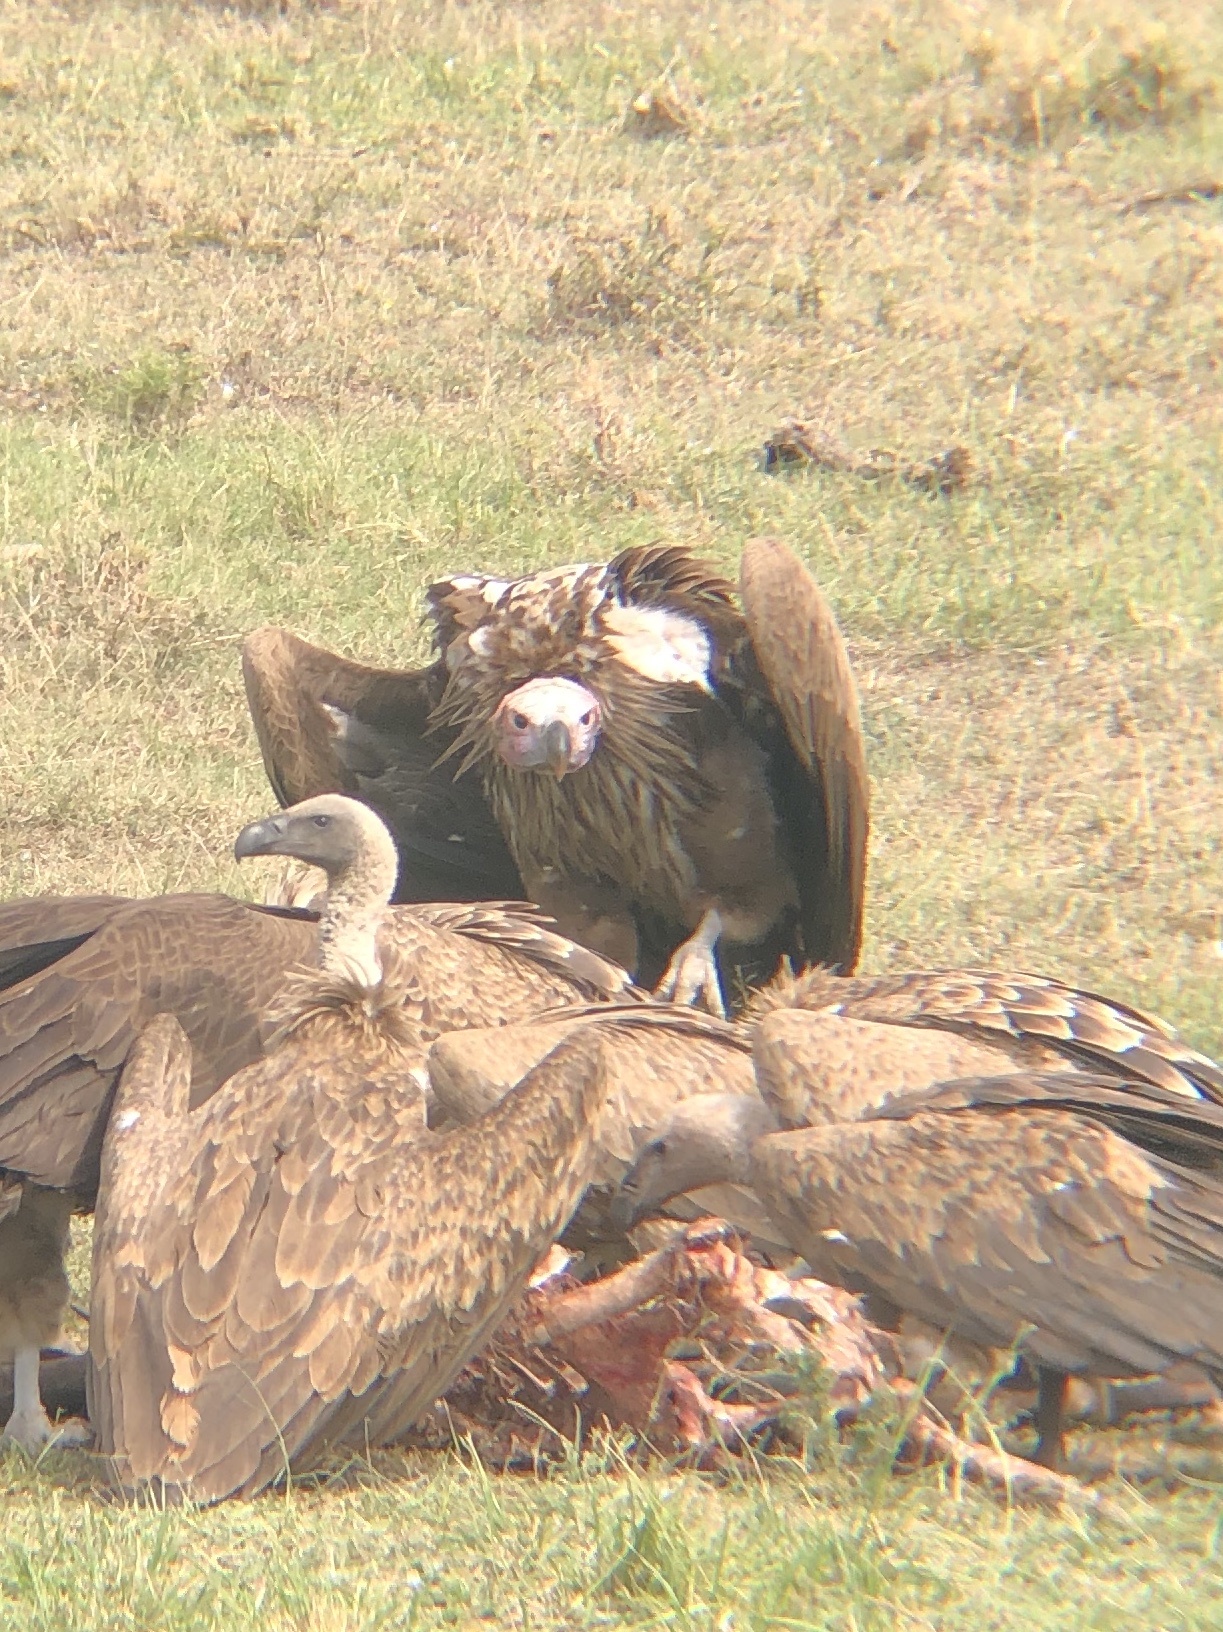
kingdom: Animalia
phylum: Chordata
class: Aves
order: Accipitriformes
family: Accipitridae
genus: Torgos
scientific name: Torgos tracheliotos
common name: Lappet-faced vulture
